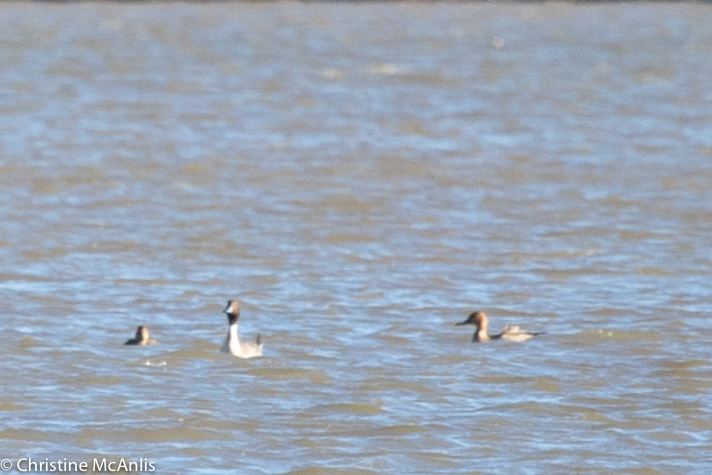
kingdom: Animalia
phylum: Chordata
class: Aves
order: Anseriformes
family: Anatidae
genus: Anas
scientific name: Anas acuta
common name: Northern pintail
